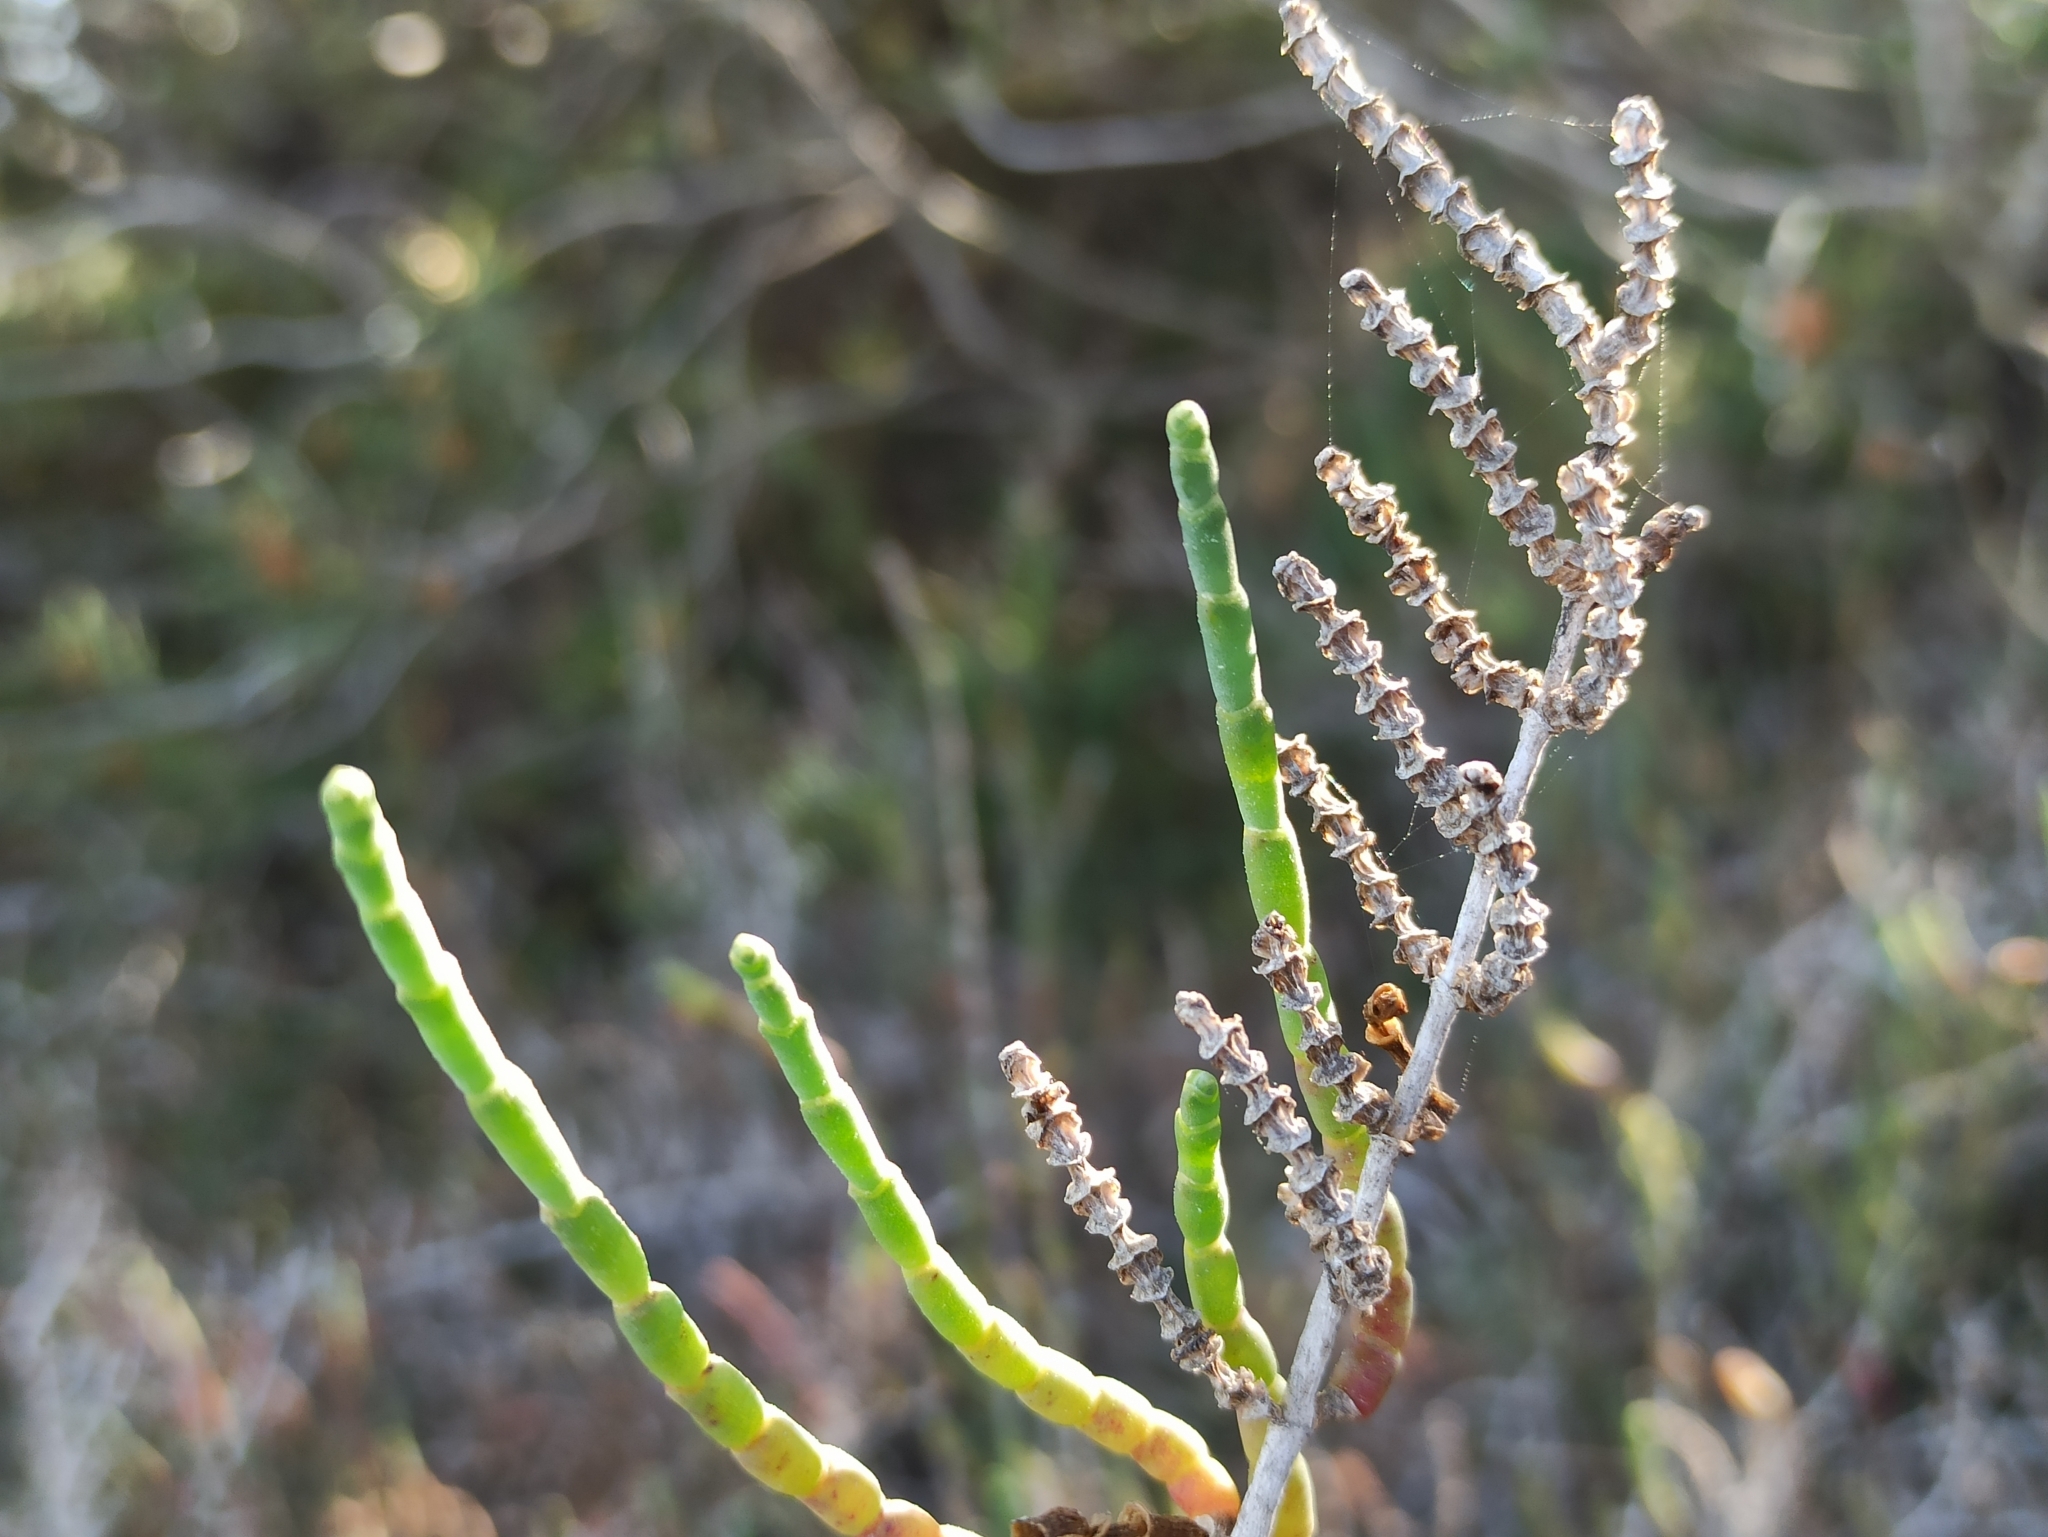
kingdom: Plantae
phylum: Tracheophyta
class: Magnoliopsida
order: Caryophyllales
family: Amaranthaceae
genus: Salicornia
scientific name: Salicornia fruticosa
